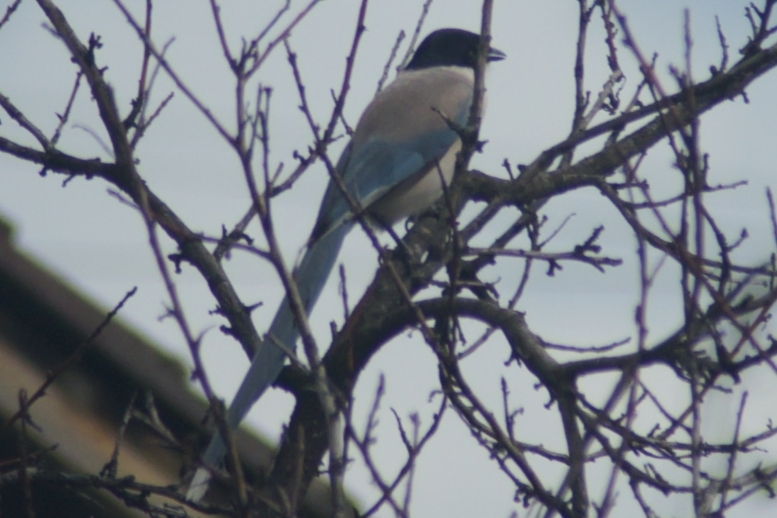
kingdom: Animalia
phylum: Chordata
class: Aves
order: Passeriformes
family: Corvidae
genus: Cyanopica
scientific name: Cyanopica cyanus
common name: Azure-winged magpie
